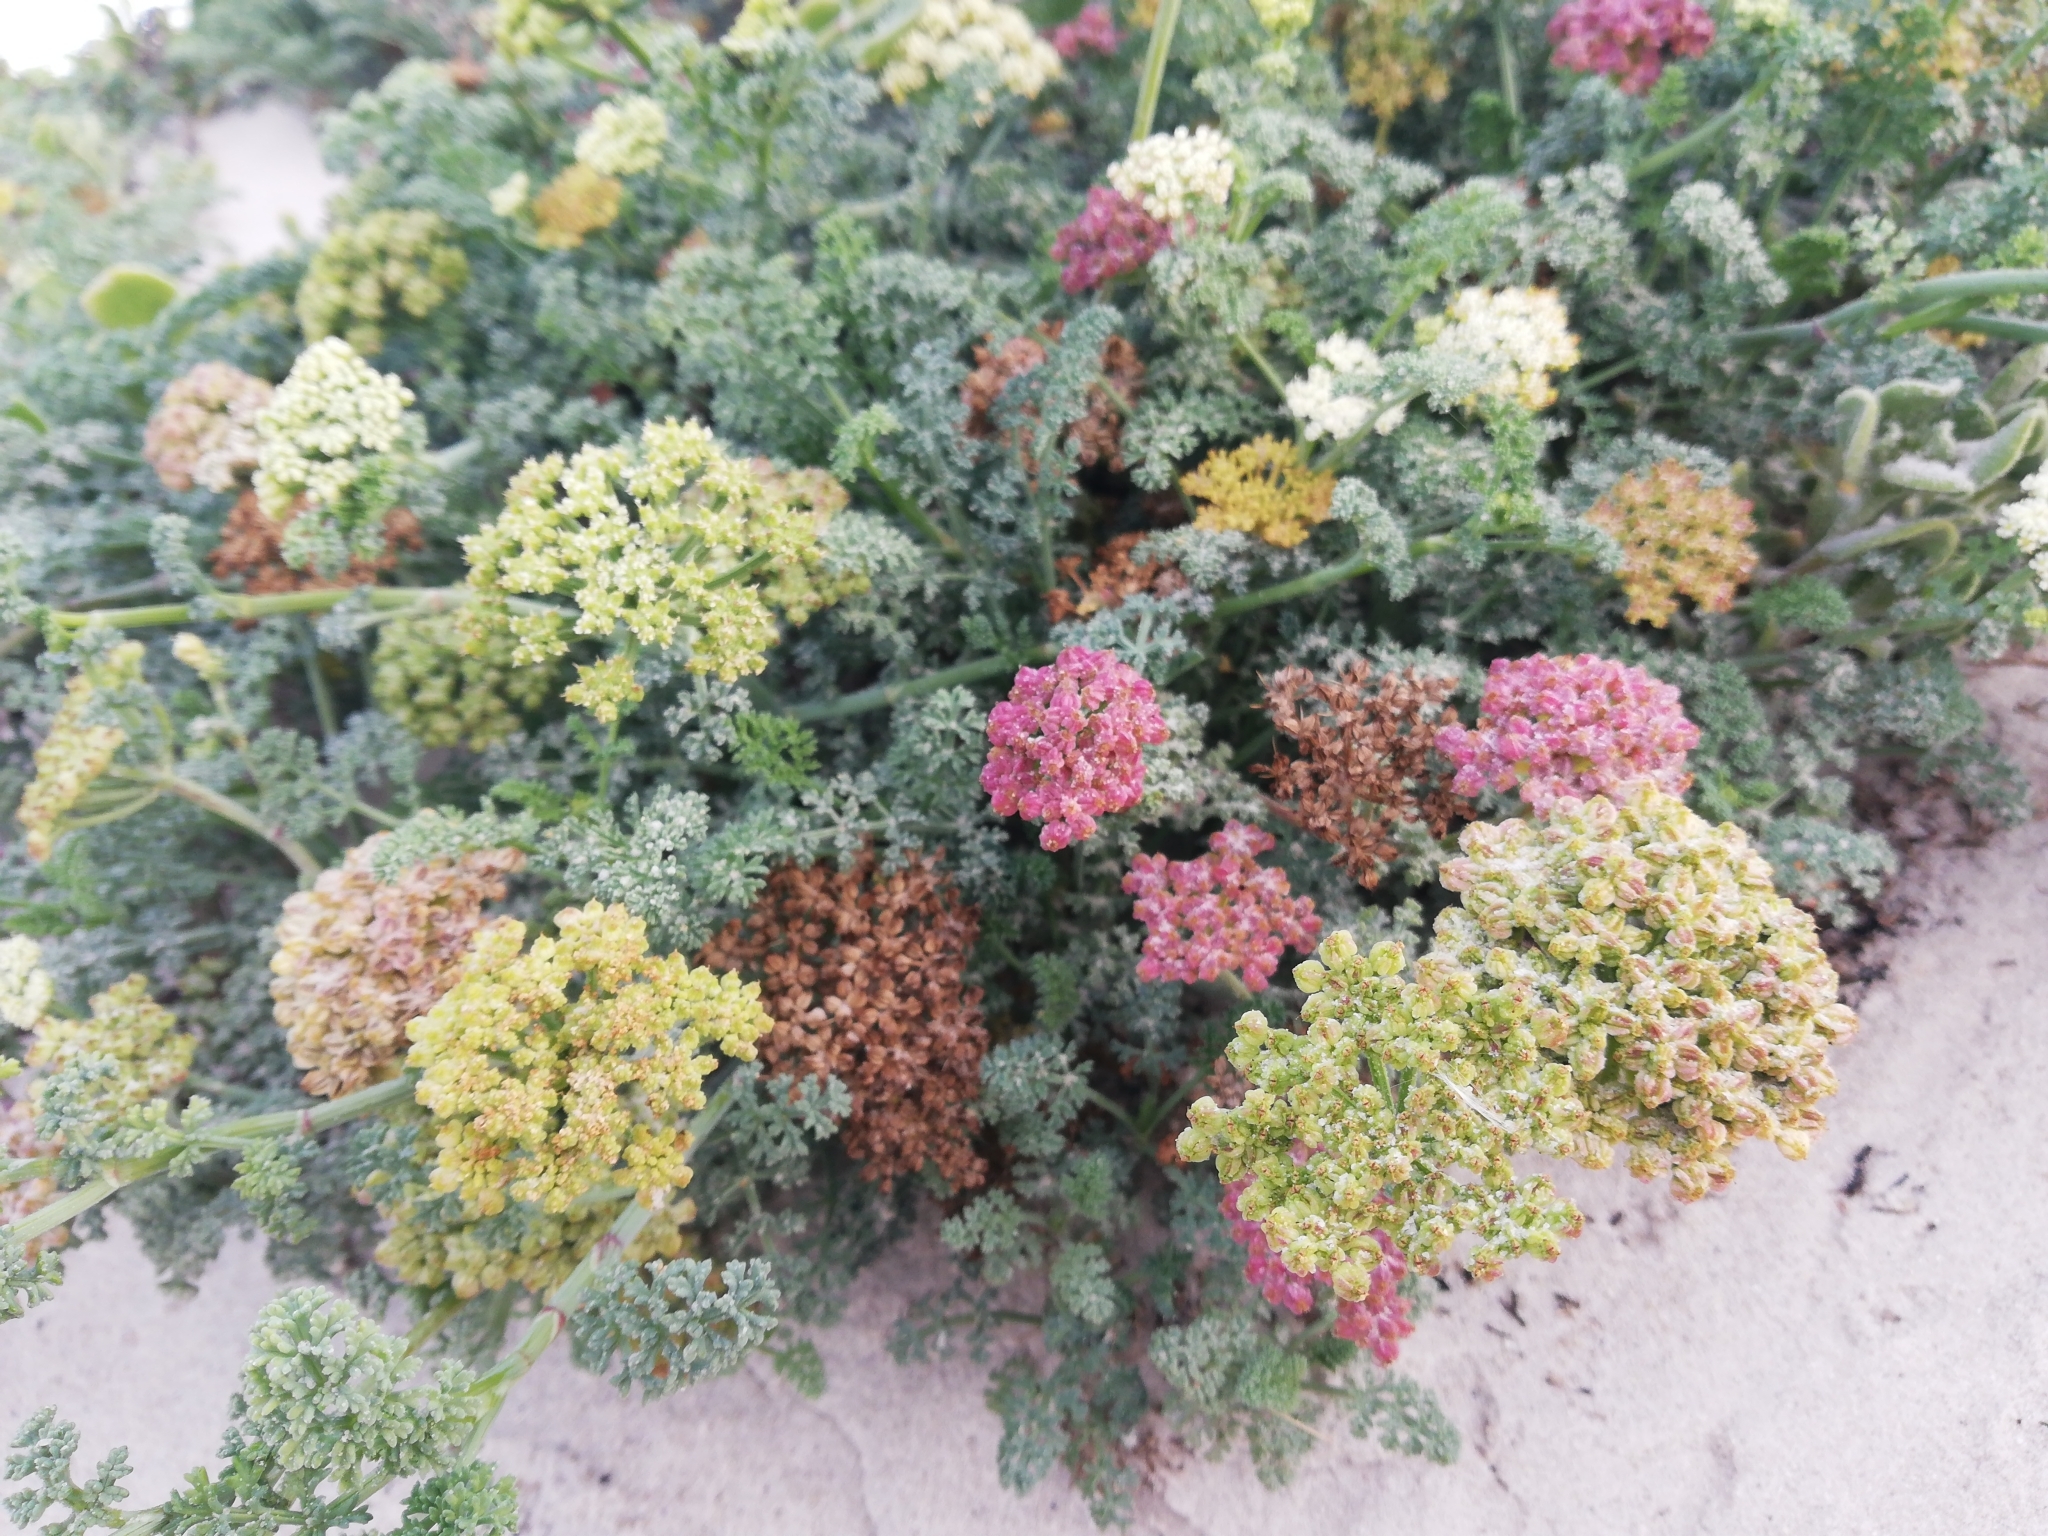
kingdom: Plantae
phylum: Tracheophyta
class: Magnoliopsida
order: Apiales
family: Apiaceae
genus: Dasispermum
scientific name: Dasispermum suffruticosum
